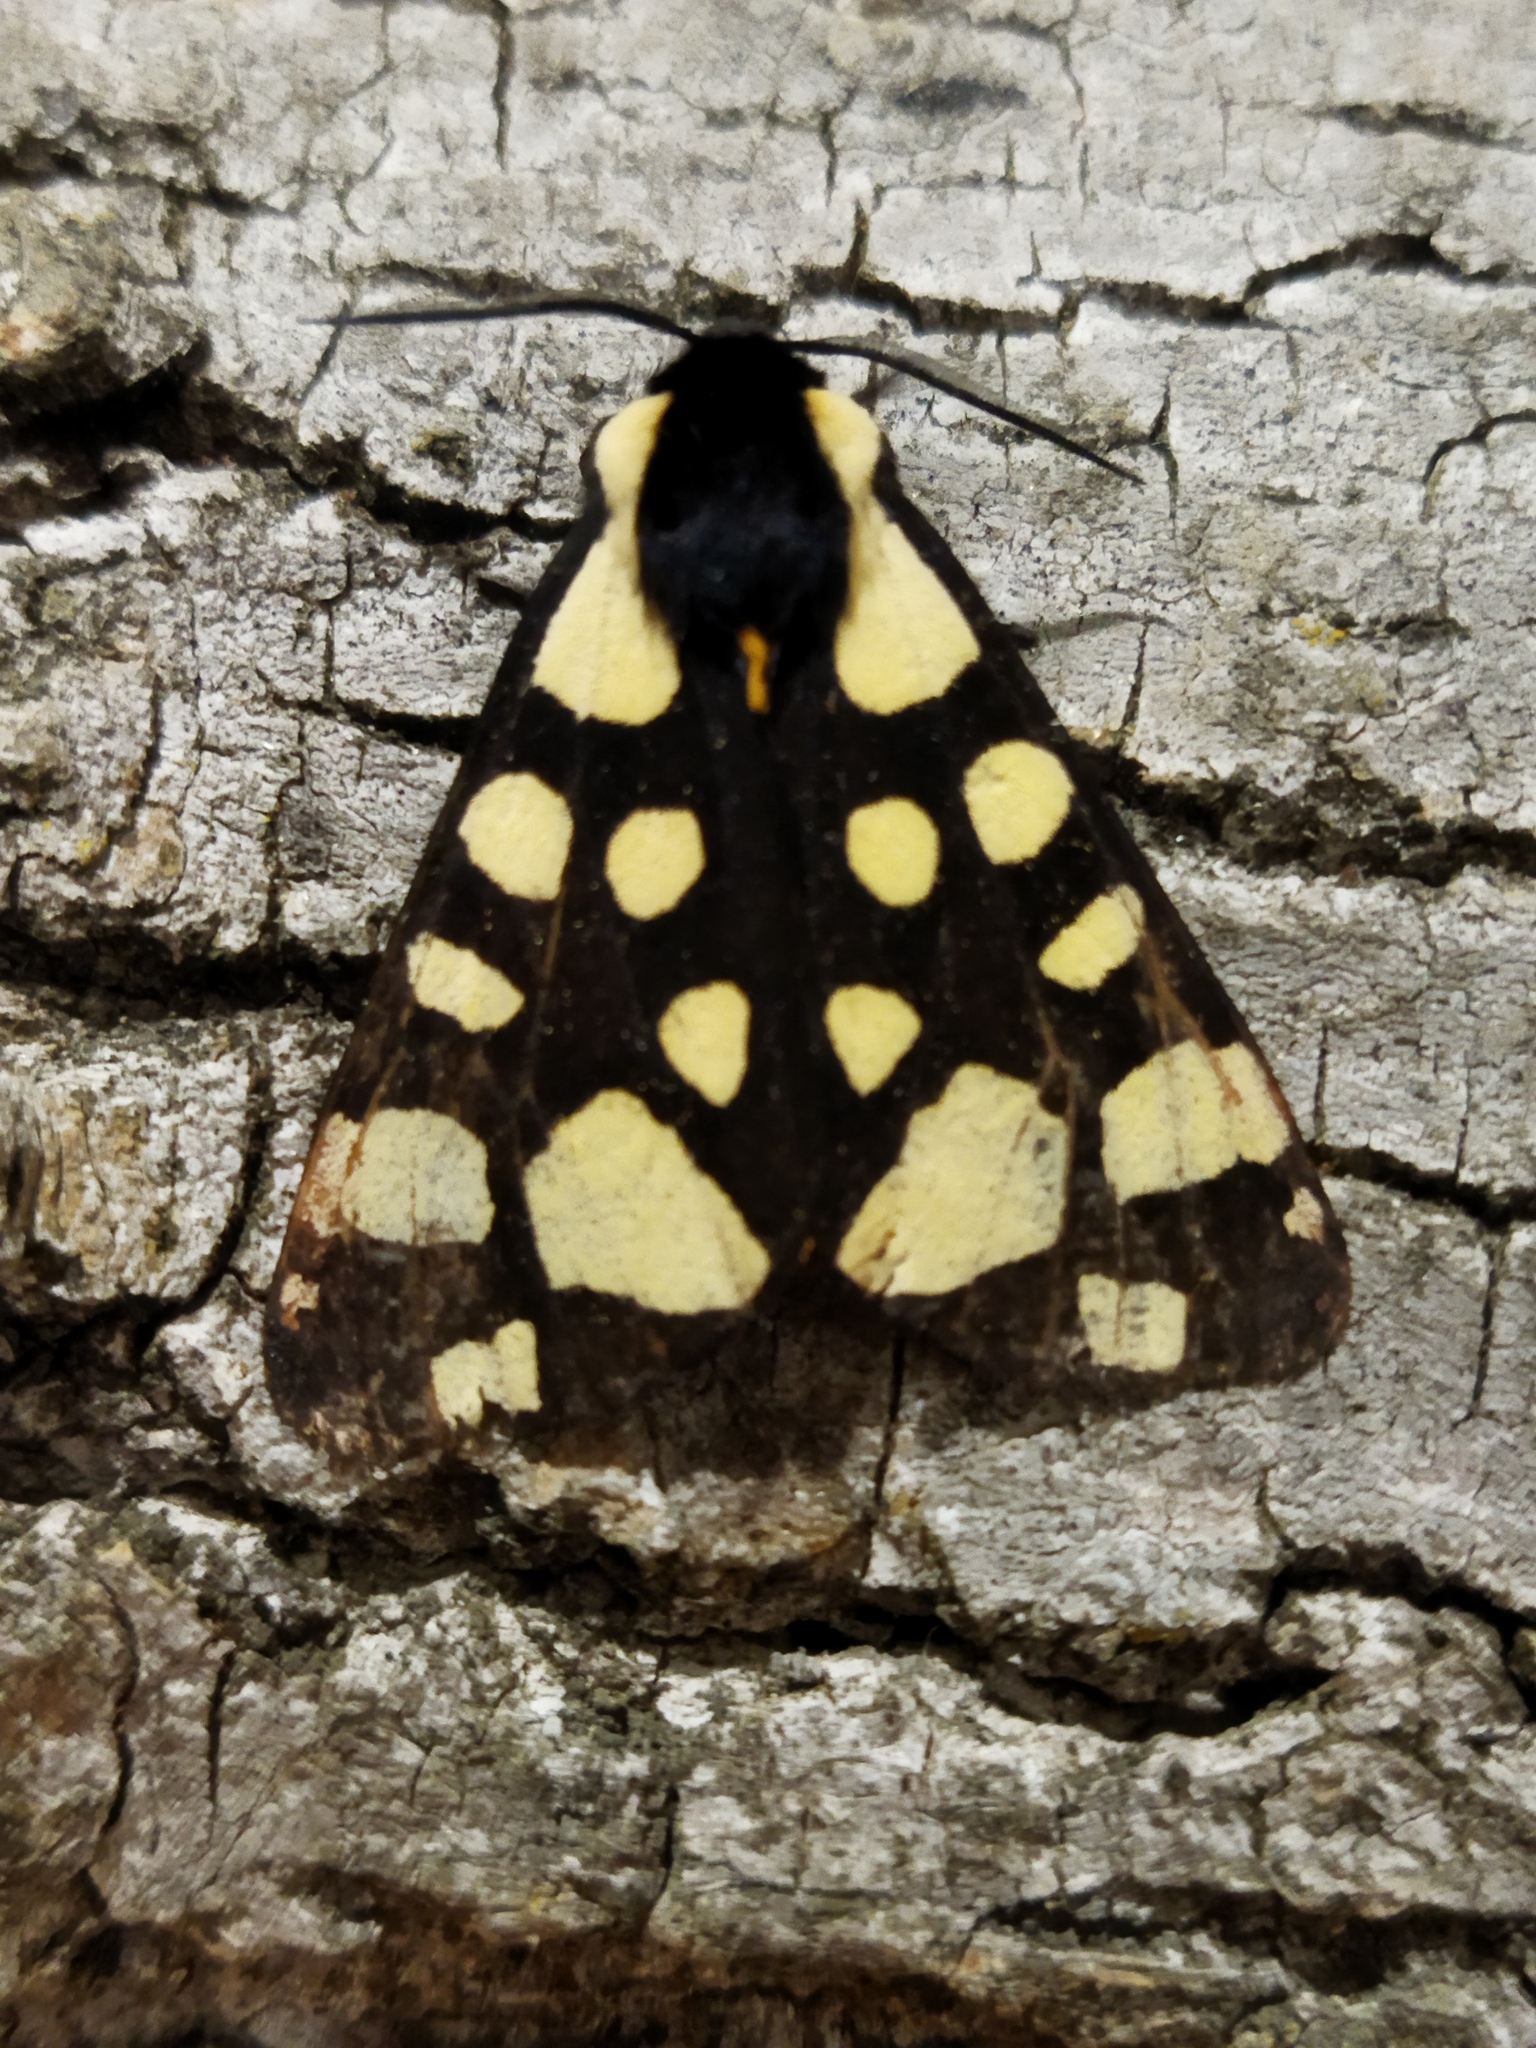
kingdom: Animalia
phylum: Arthropoda
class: Insecta
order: Lepidoptera
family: Erebidae
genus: Epicallia
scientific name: Epicallia villica
